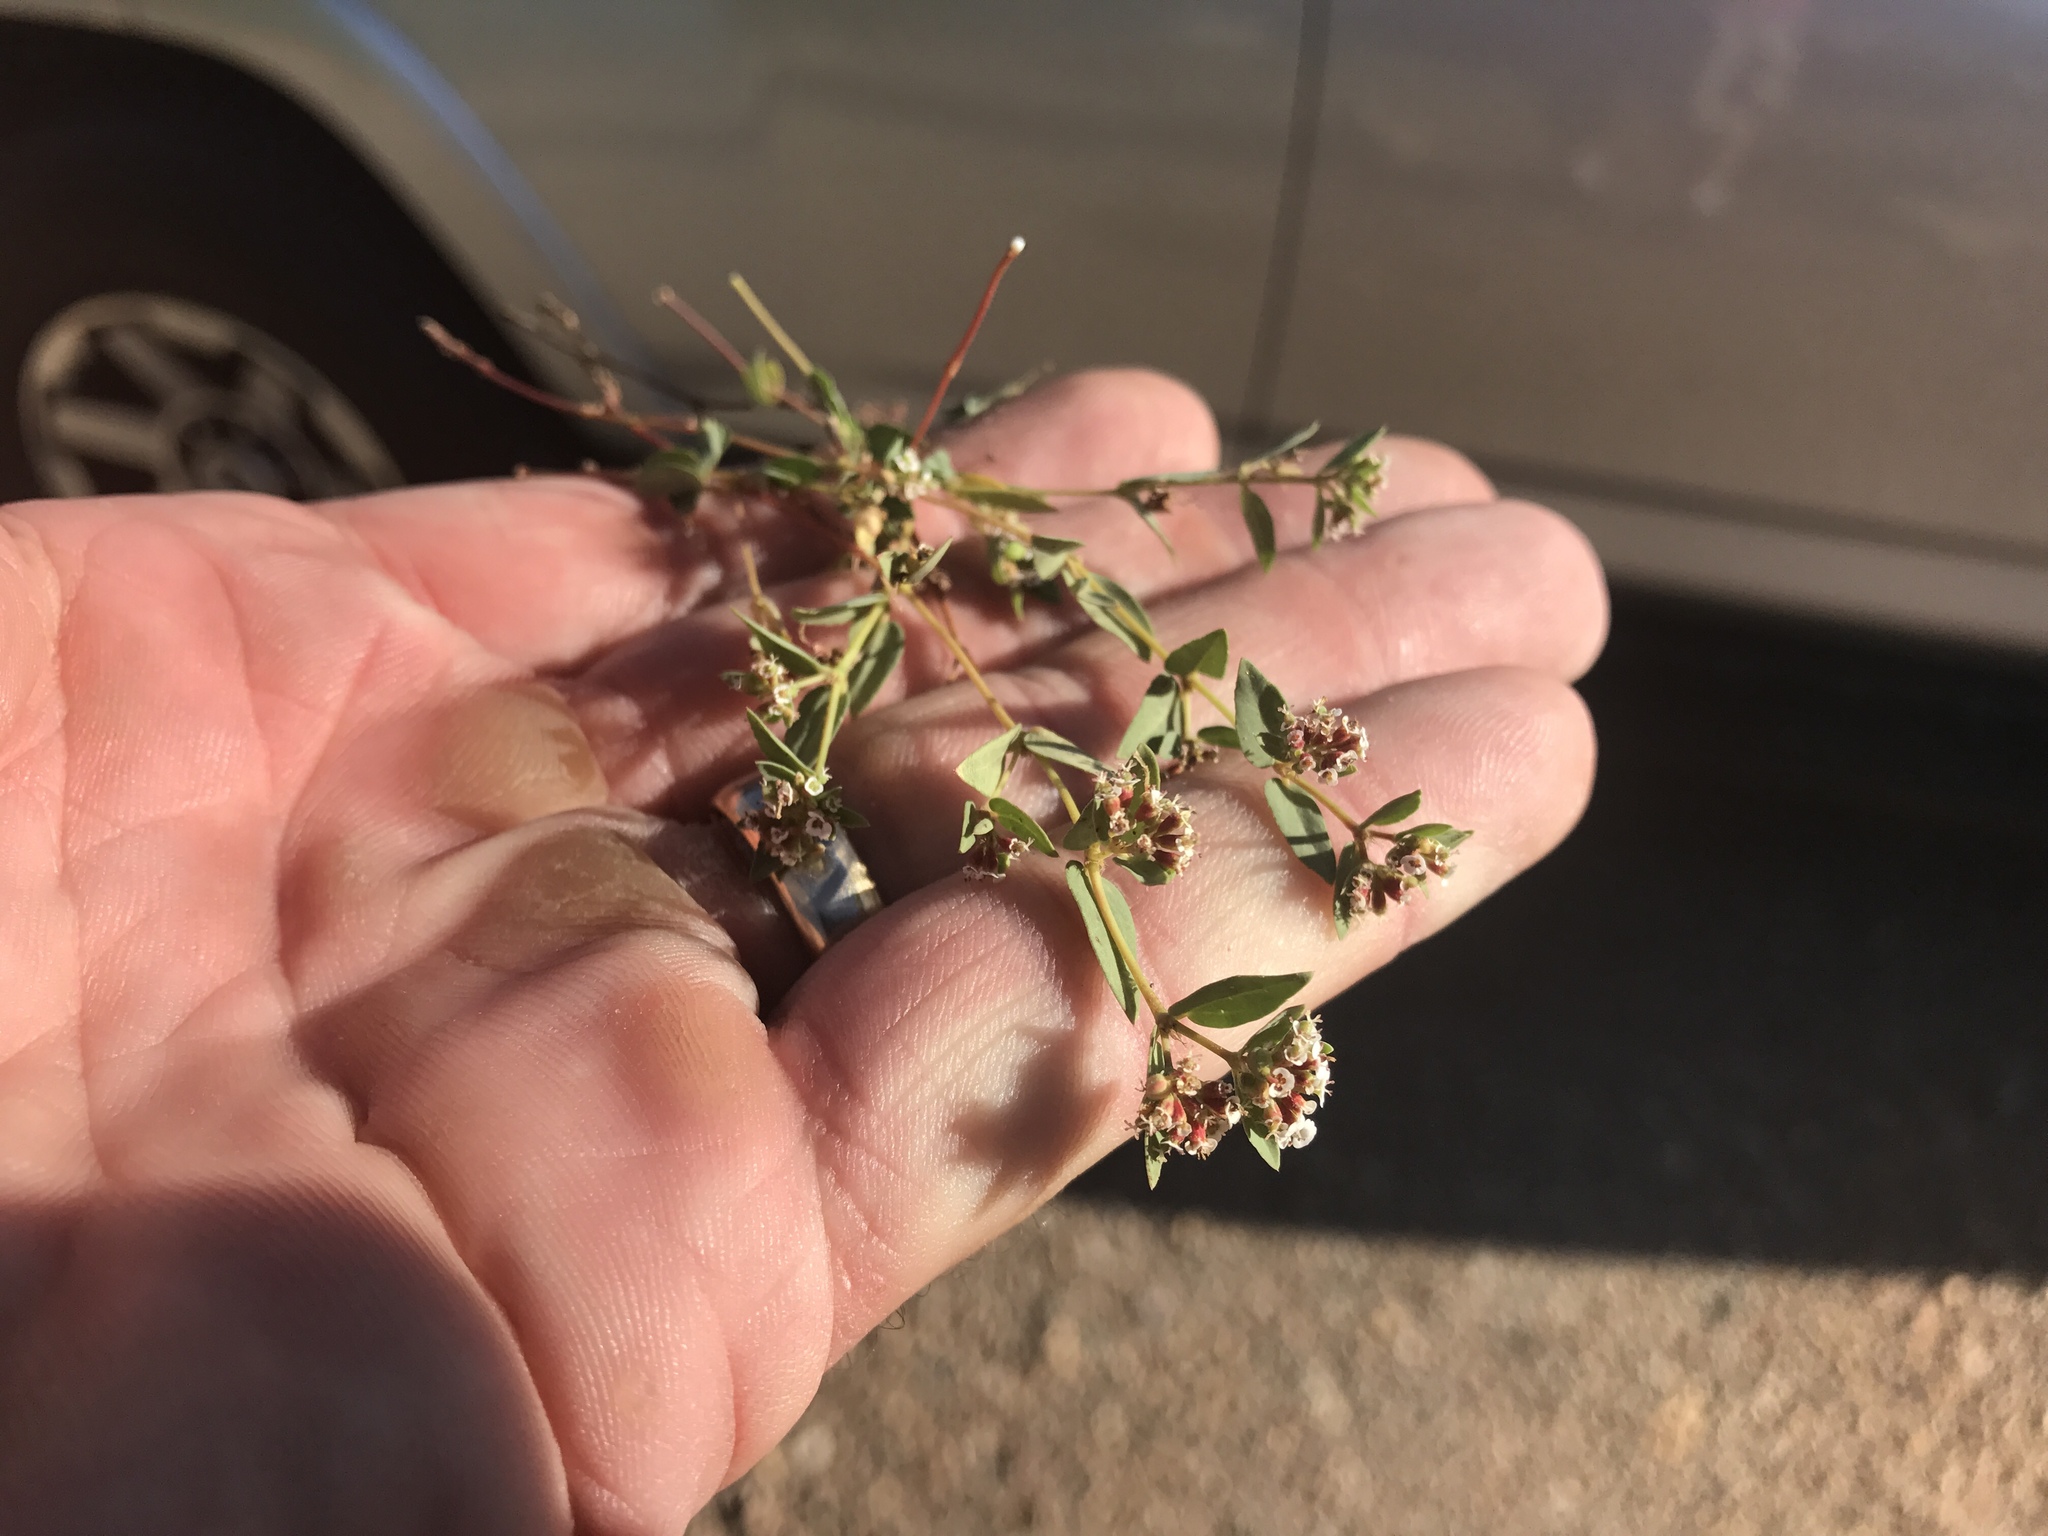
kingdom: Plantae
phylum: Tracheophyta
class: Magnoliopsida
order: Malpighiales
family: Euphorbiaceae
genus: Euphorbia
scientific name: Euphorbia capitellata
